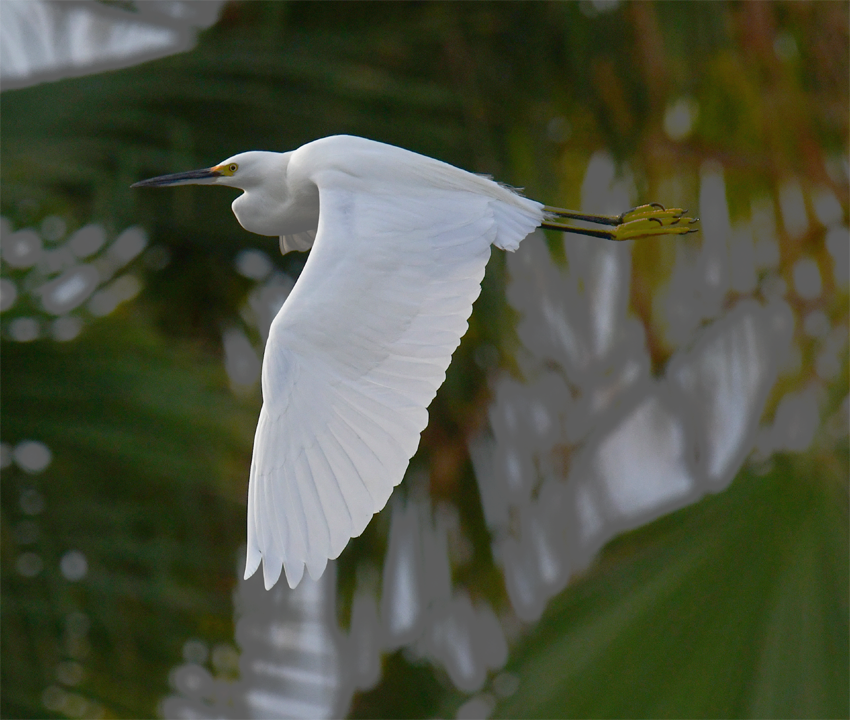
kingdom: Animalia
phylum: Chordata
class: Aves
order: Pelecaniformes
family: Ardeidae
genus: Egretta
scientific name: Egretta thula
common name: Snowy egret
